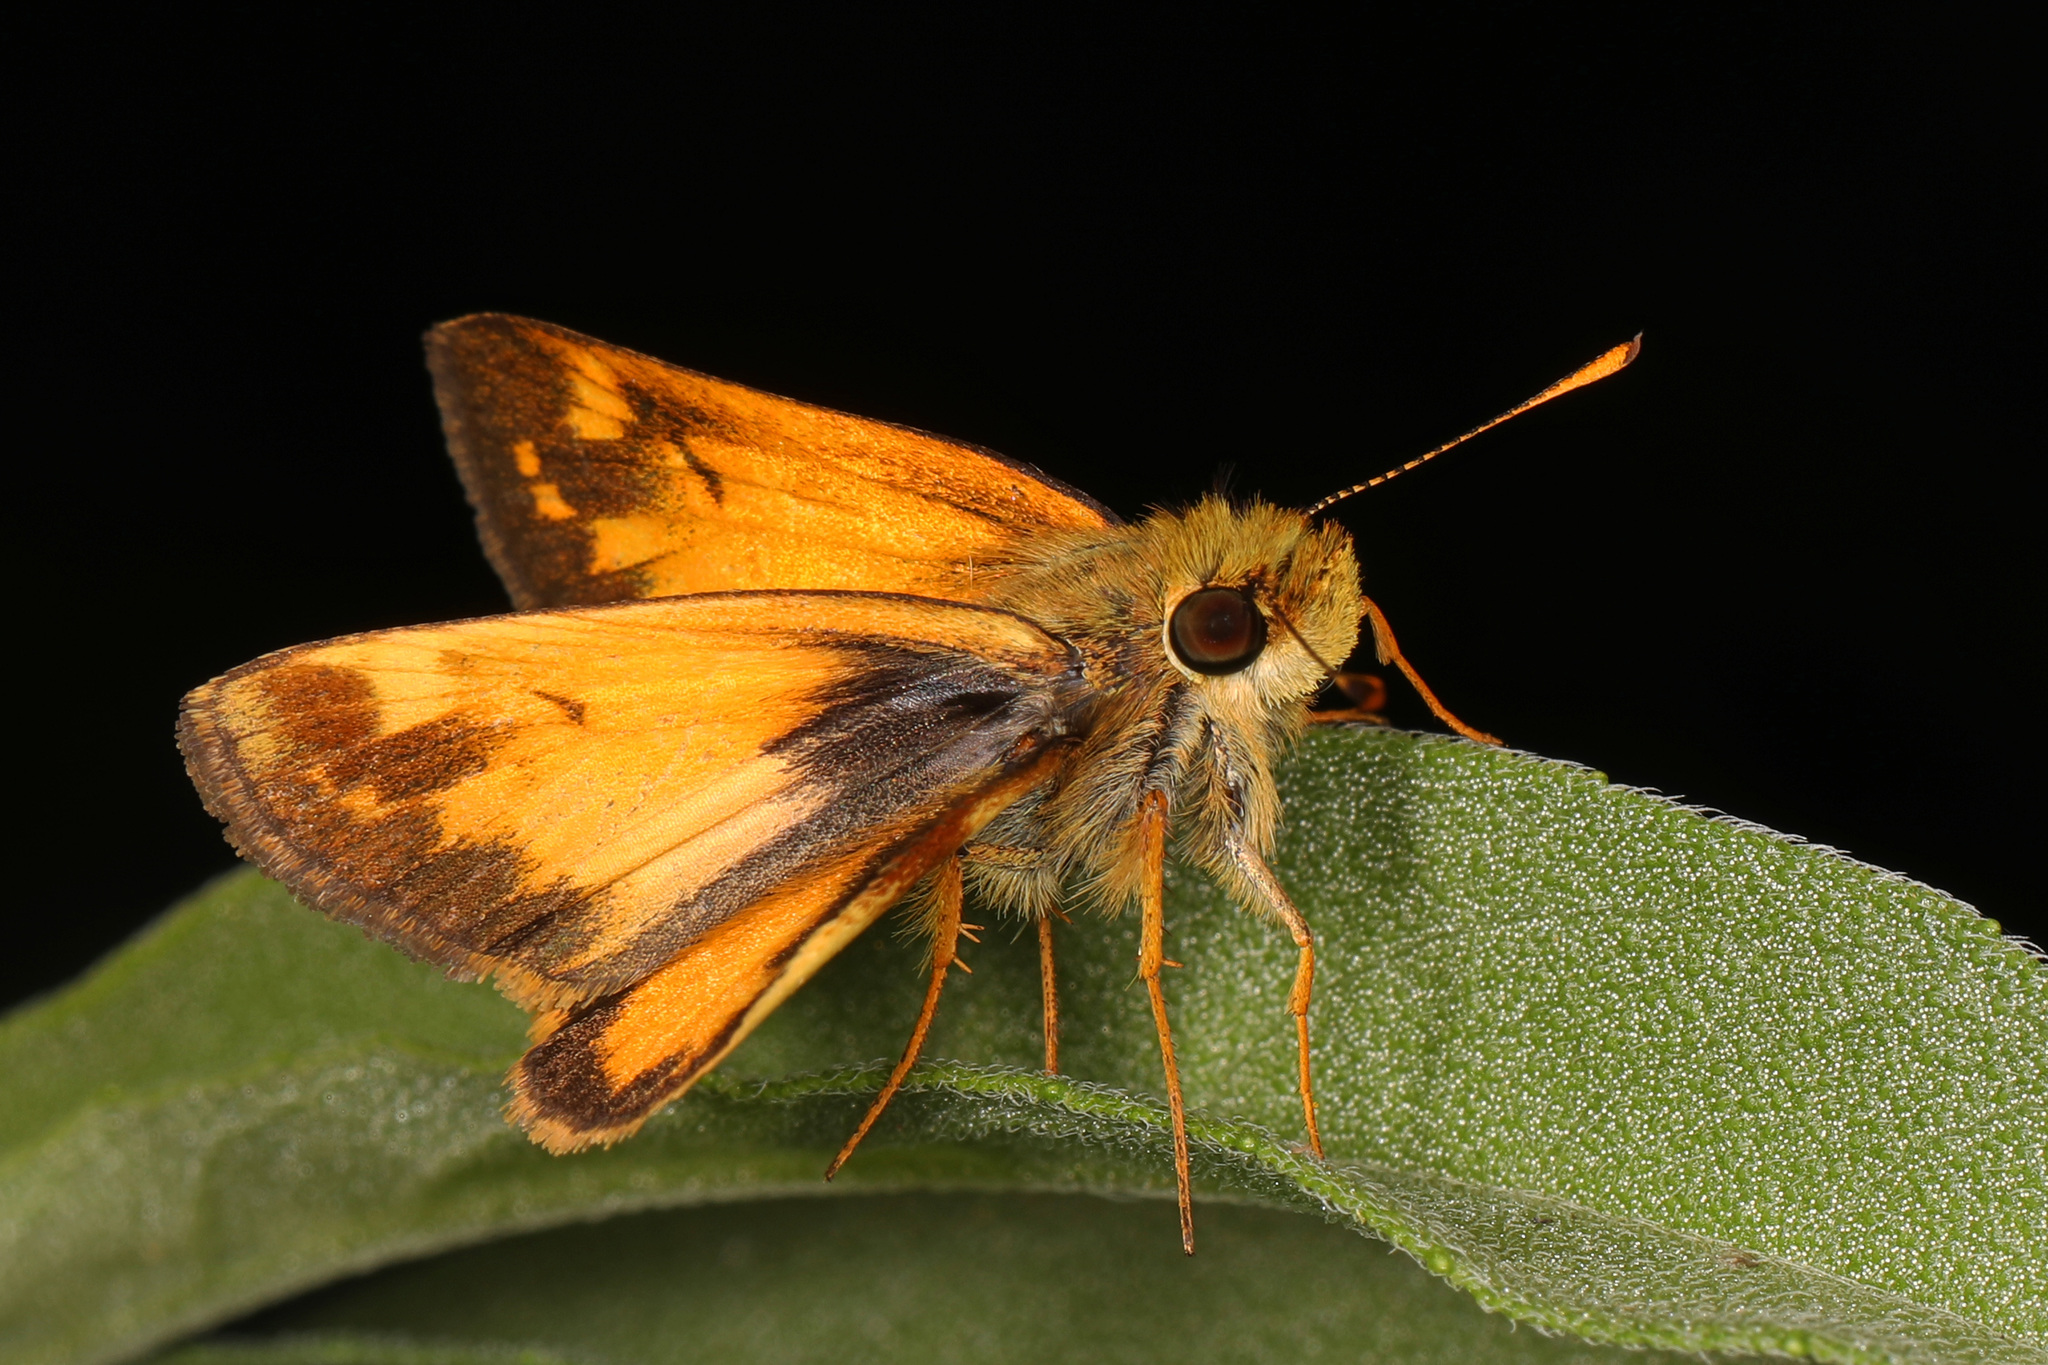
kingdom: Animalia
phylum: Arthropoda
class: Insecta
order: Lepidoptera
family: Hesperiidae
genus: Lon
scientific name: Lon zabulon
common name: Zabulon skipper
